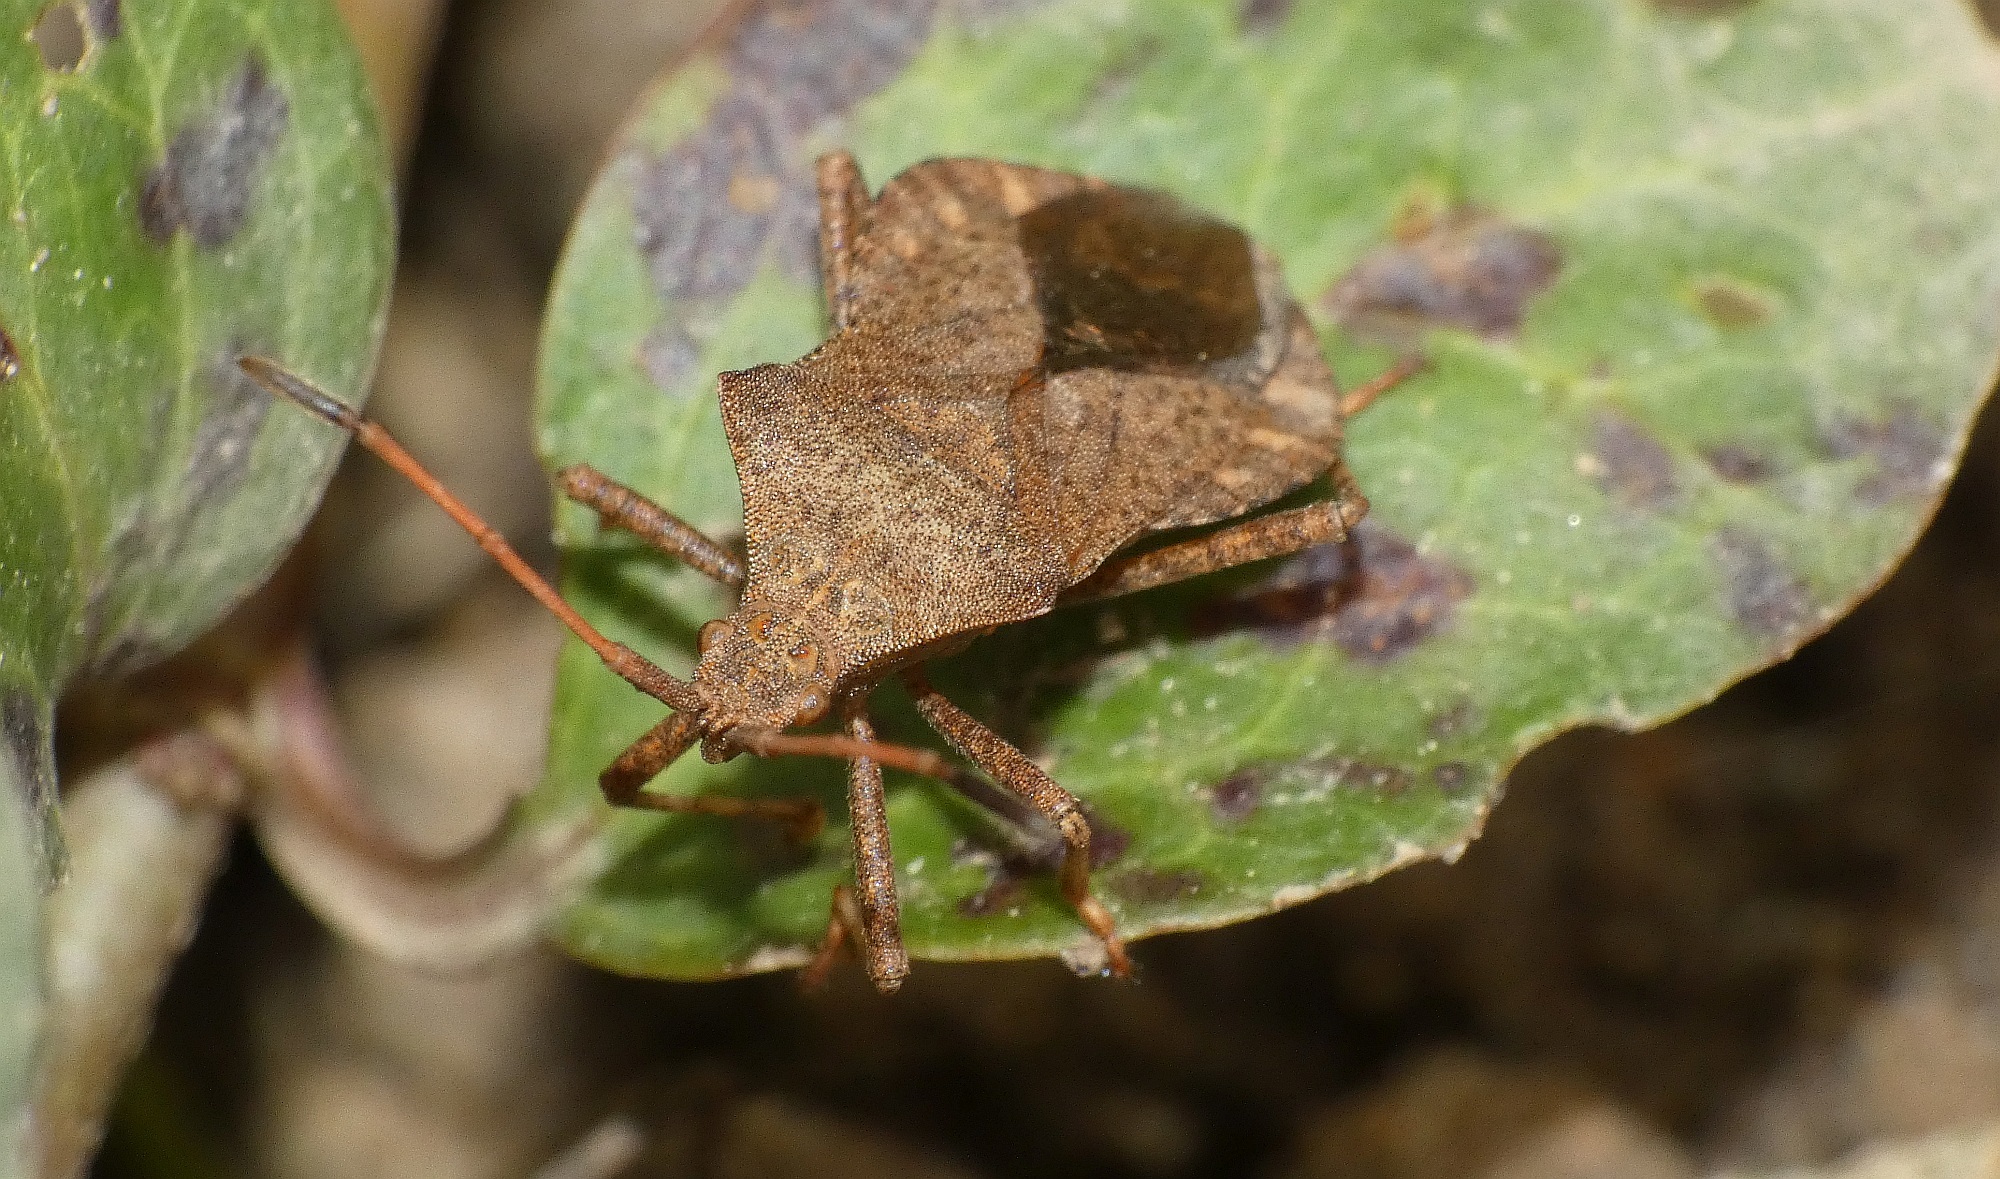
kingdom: Animalia
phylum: Arthropoda
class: Insecta
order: Hemiptera
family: Coreidae
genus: Coreus
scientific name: Coreus marginatus
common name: Dock bug
